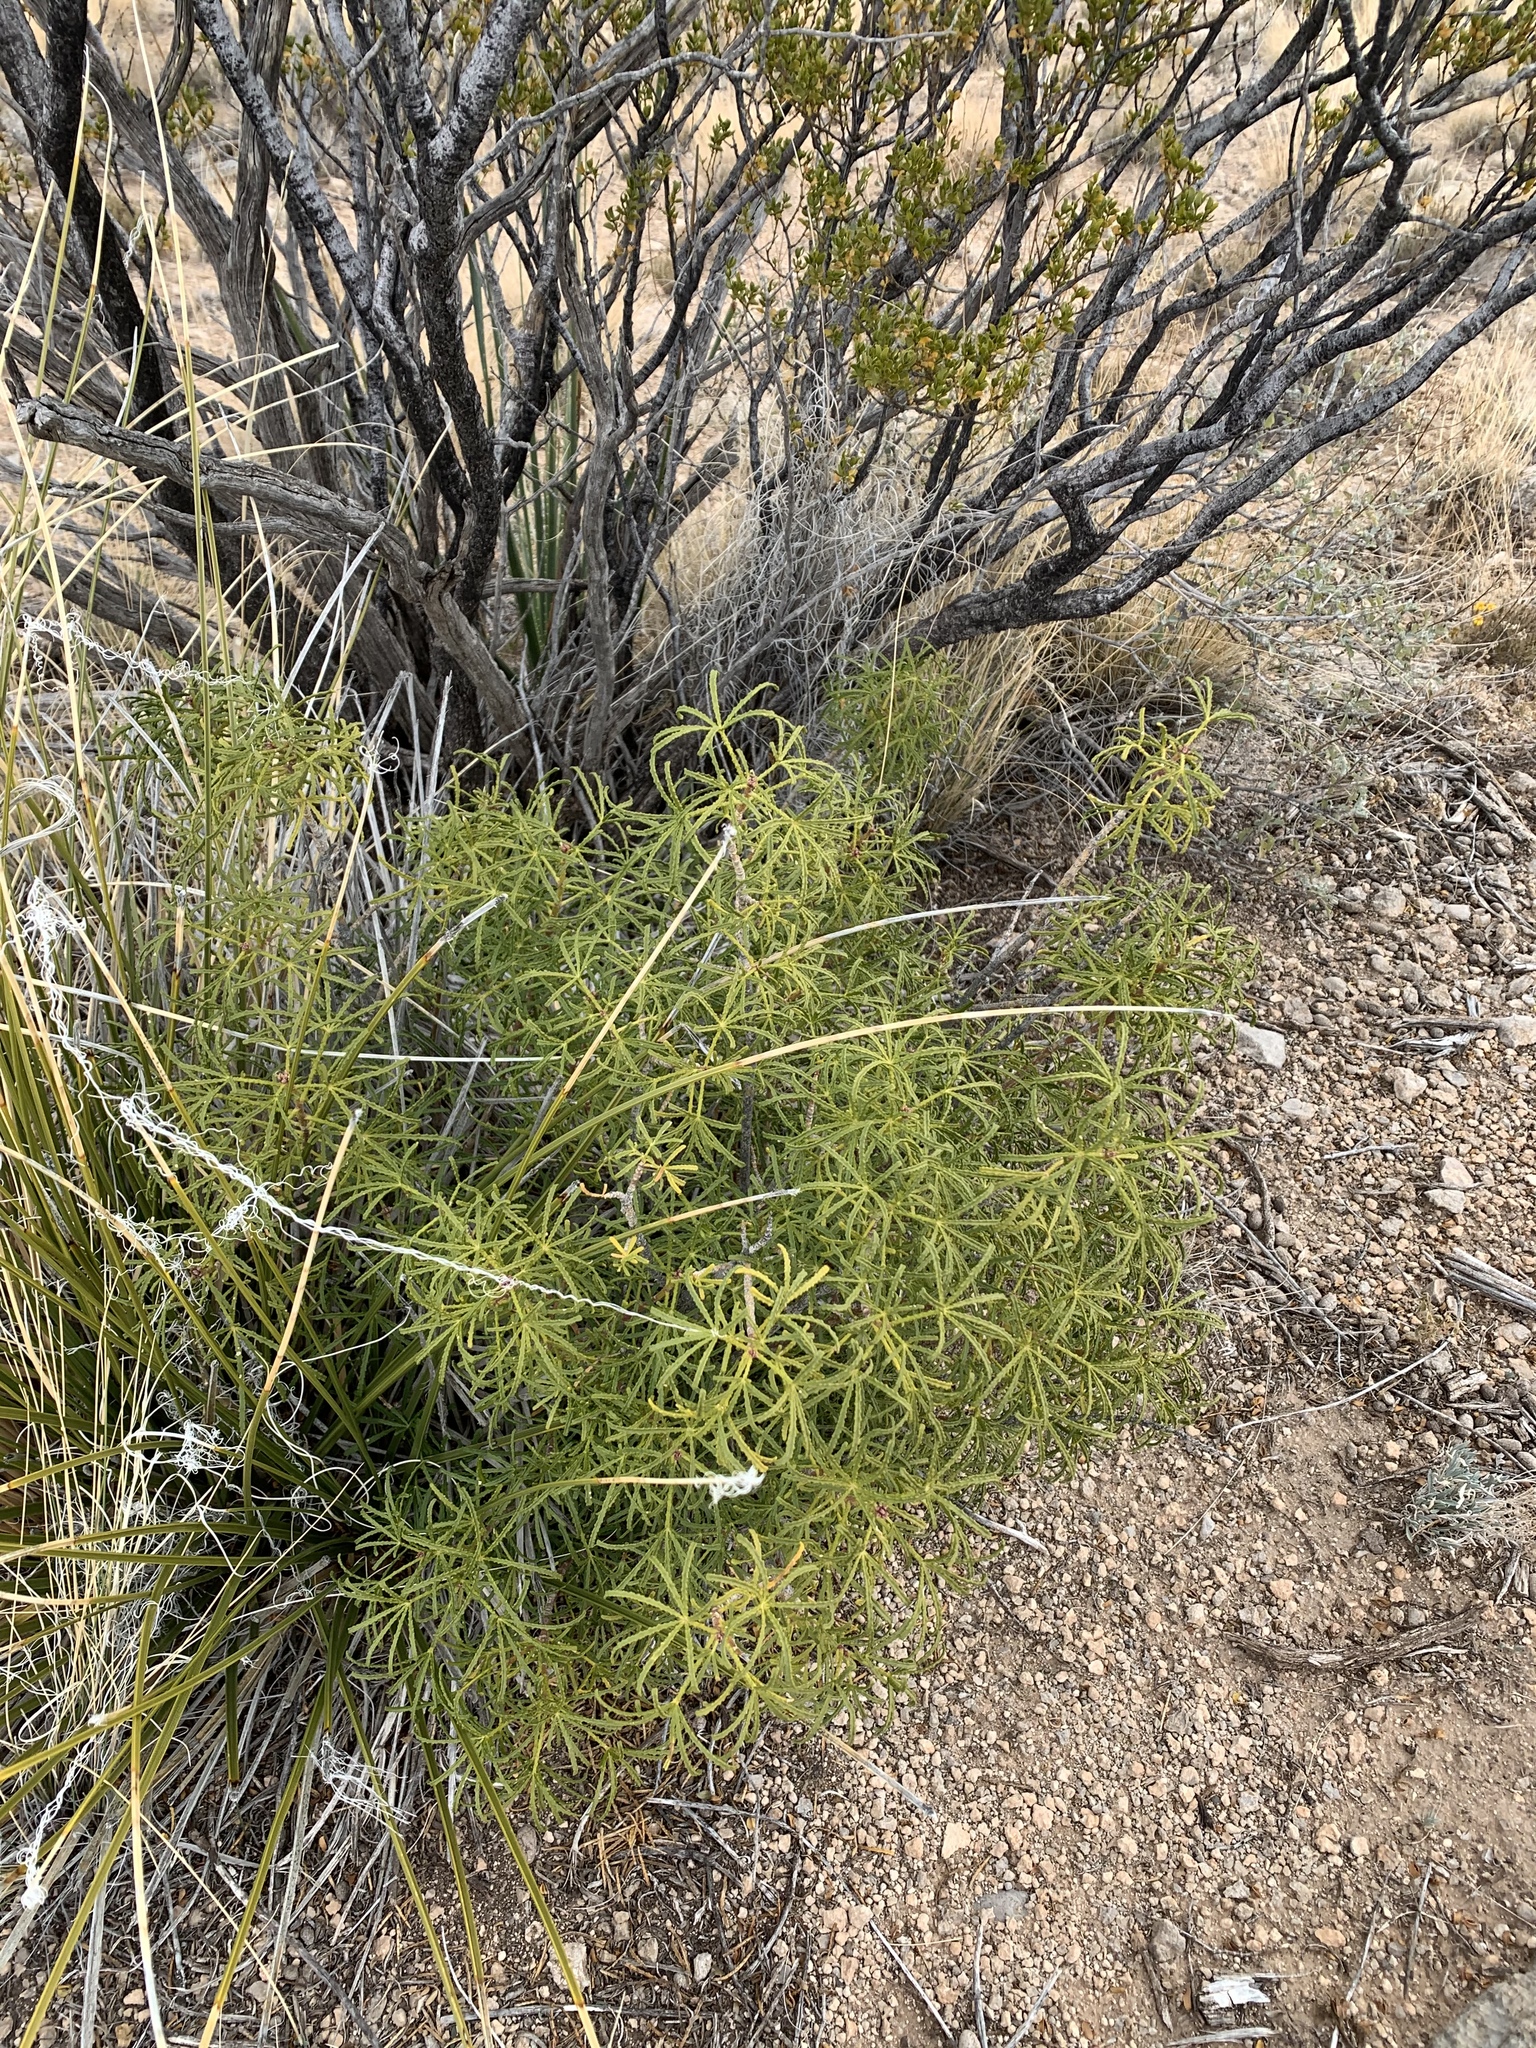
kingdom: Plantae
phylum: Tracheophyta
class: Magnoliopsida
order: Sapindales
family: Rutaceae
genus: Choisya
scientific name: Choisya dumosa
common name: Mexican-orange
